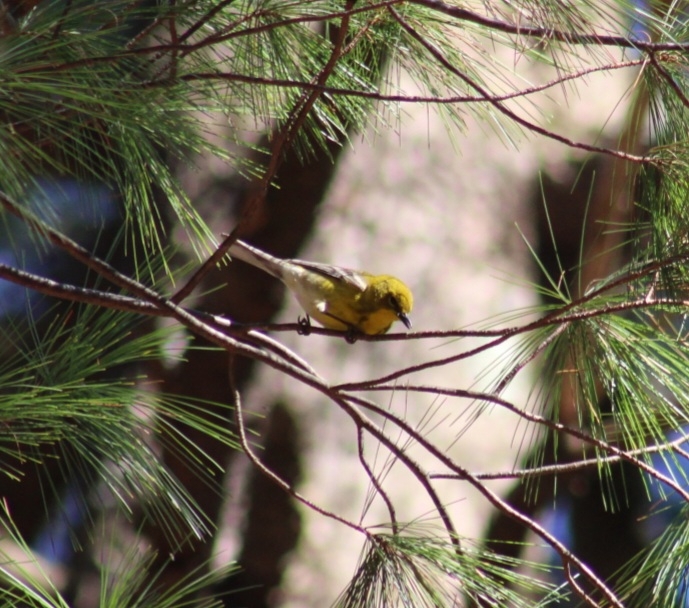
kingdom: Animalia
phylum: Chordata
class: Aves
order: Passeriformes
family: Parulidae
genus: Setophaga
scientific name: Setophaga pinus
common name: Pine warbler
